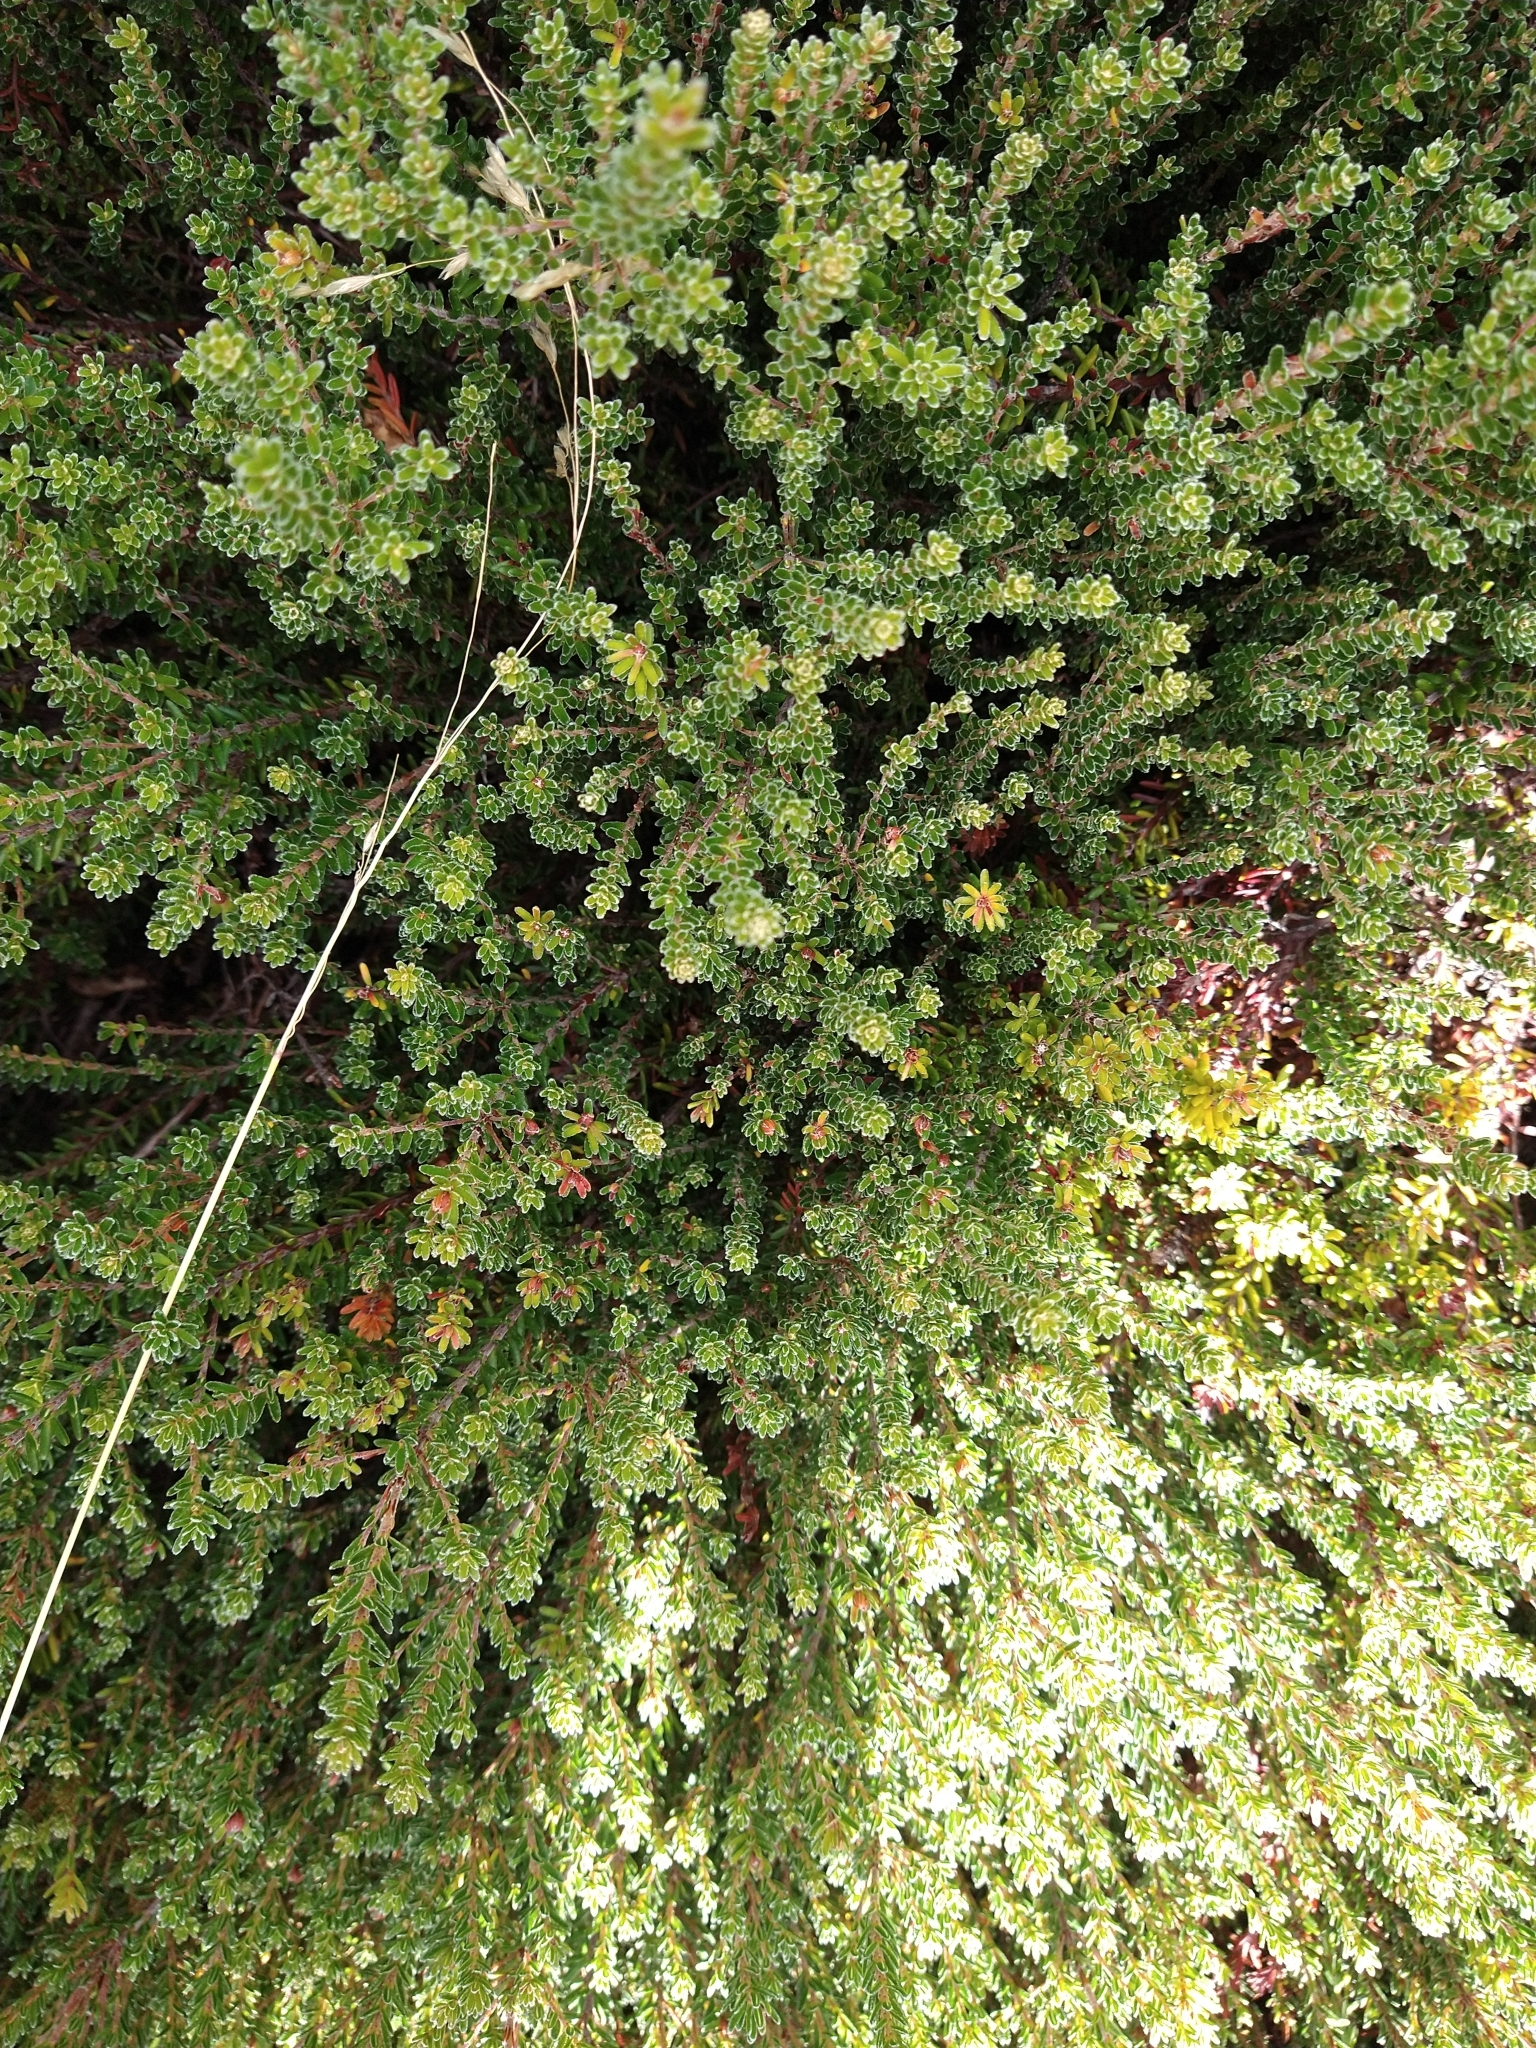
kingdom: Plantae
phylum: Tracheophyta
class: Magnoliopsida
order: Ericales
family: Ericaceae
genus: Empetrum
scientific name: Empetrum rubrum
